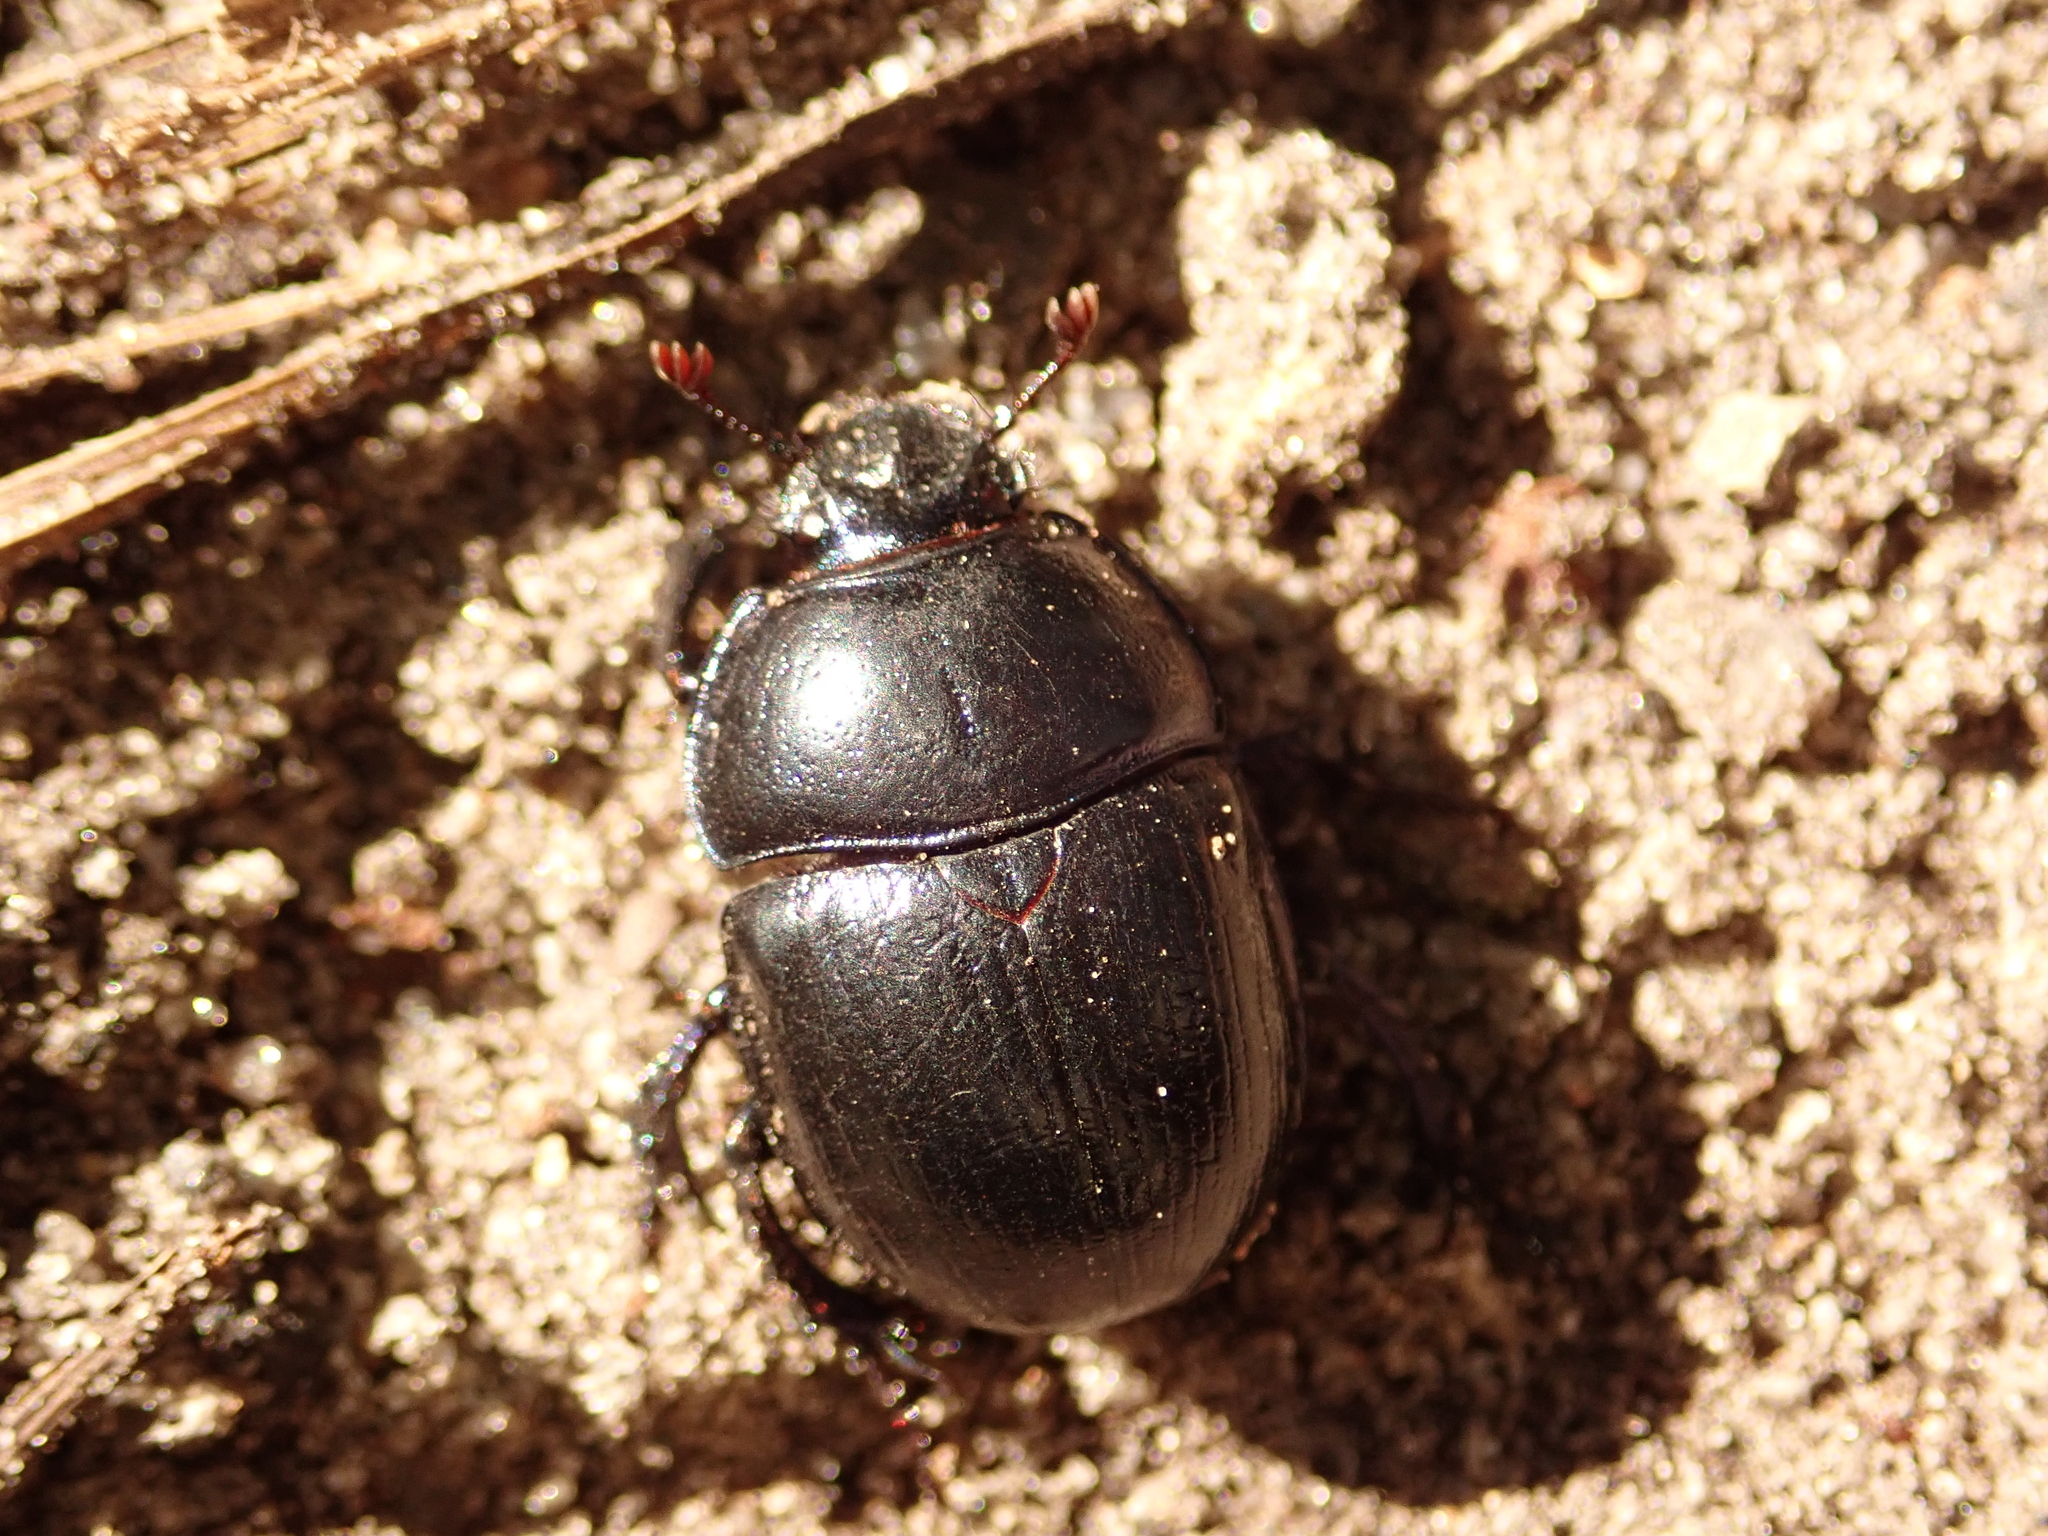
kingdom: Animalia
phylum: Arthropoda
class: Insecta
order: Coleoptera
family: Geotrupidae
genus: Anoplotrupes
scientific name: Anoplotrupes stercorosus
